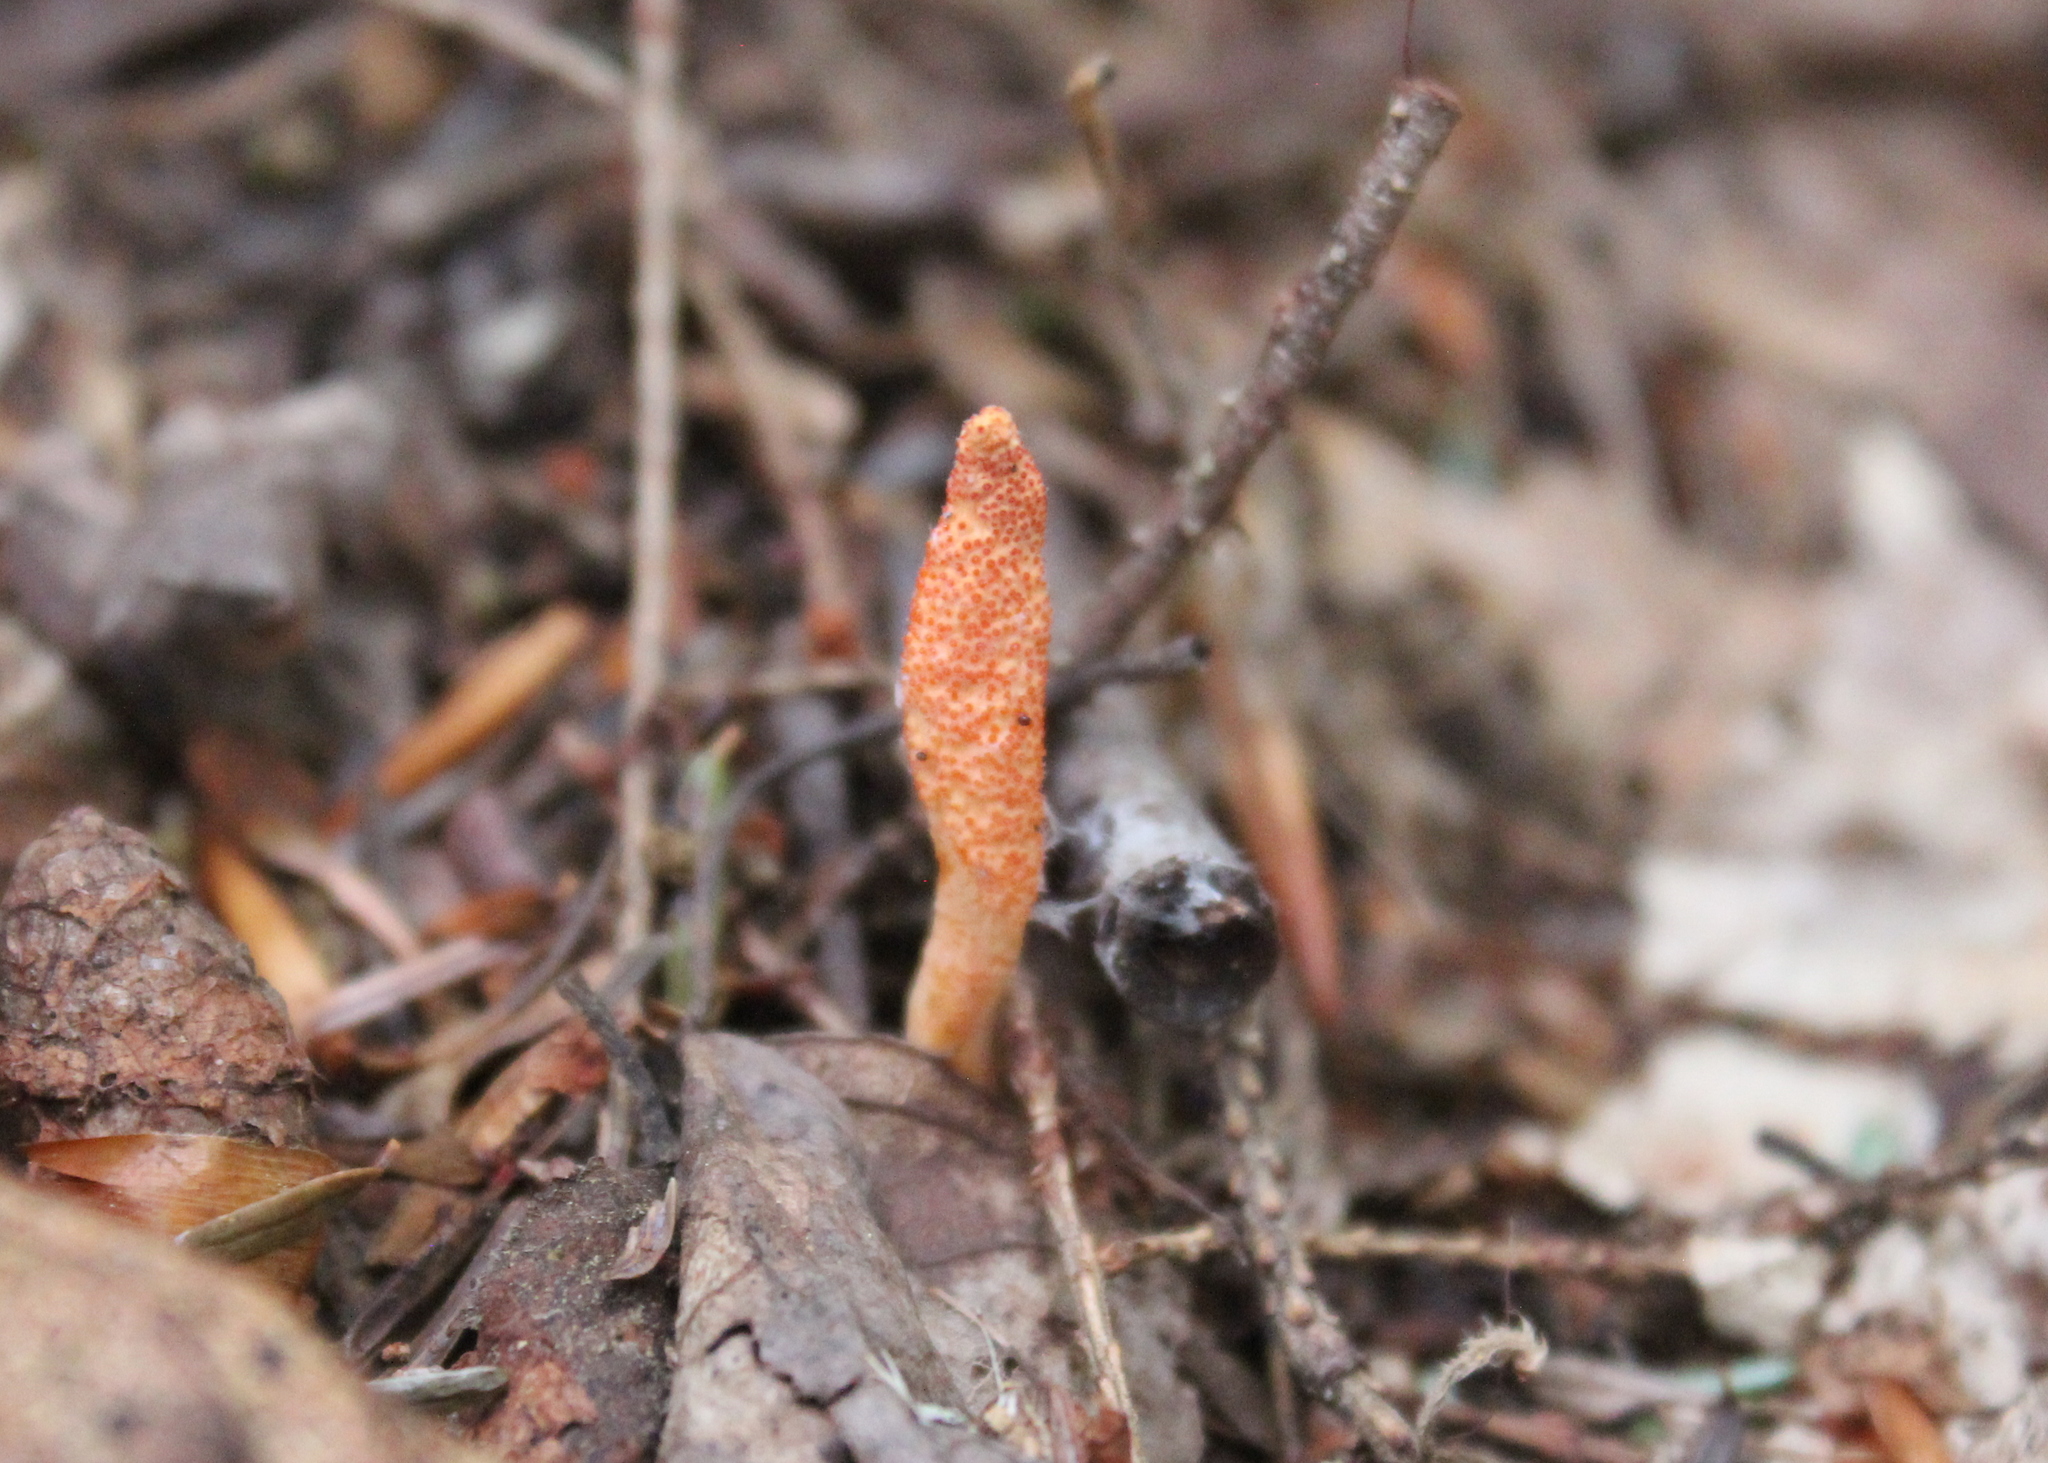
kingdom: Fungi
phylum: Ascomycota
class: Sordariomycetes
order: Hypocreales
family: Cordycipitaceae
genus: Cordyceps
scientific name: Cordyceps militaris
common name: Scarlet caterpillar fungus
